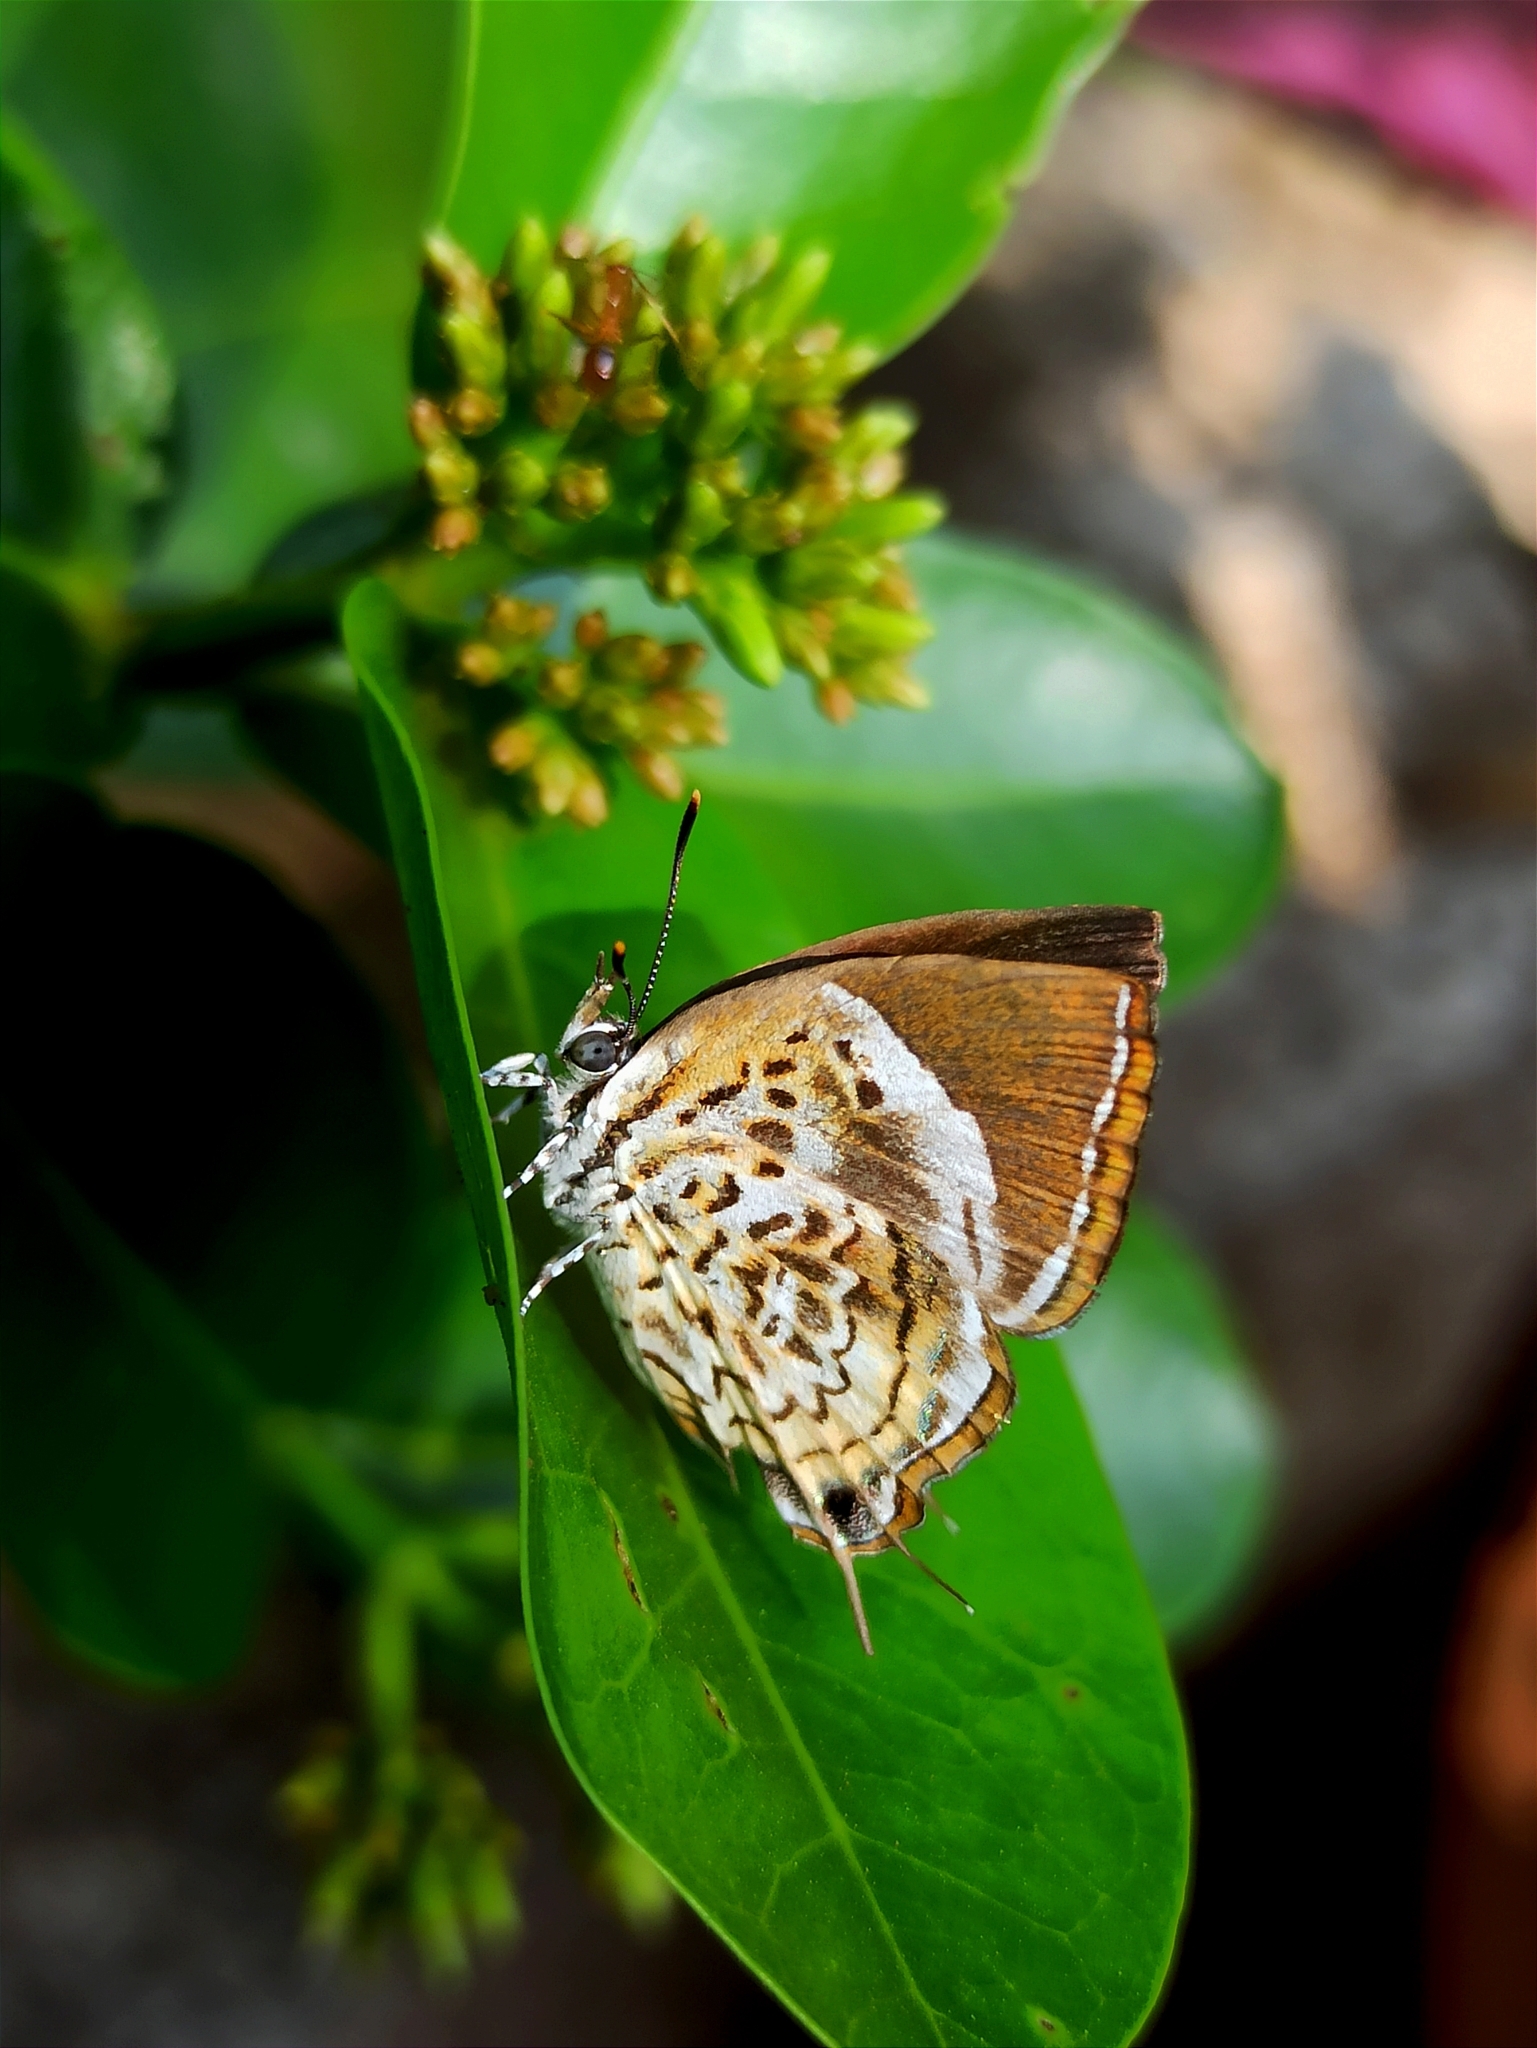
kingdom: Animalia
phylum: Arthropoda
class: Insecta
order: Lepidoptera
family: Lycaenidae
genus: Rathinda
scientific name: Rathinda amor
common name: Monkey puzzle
